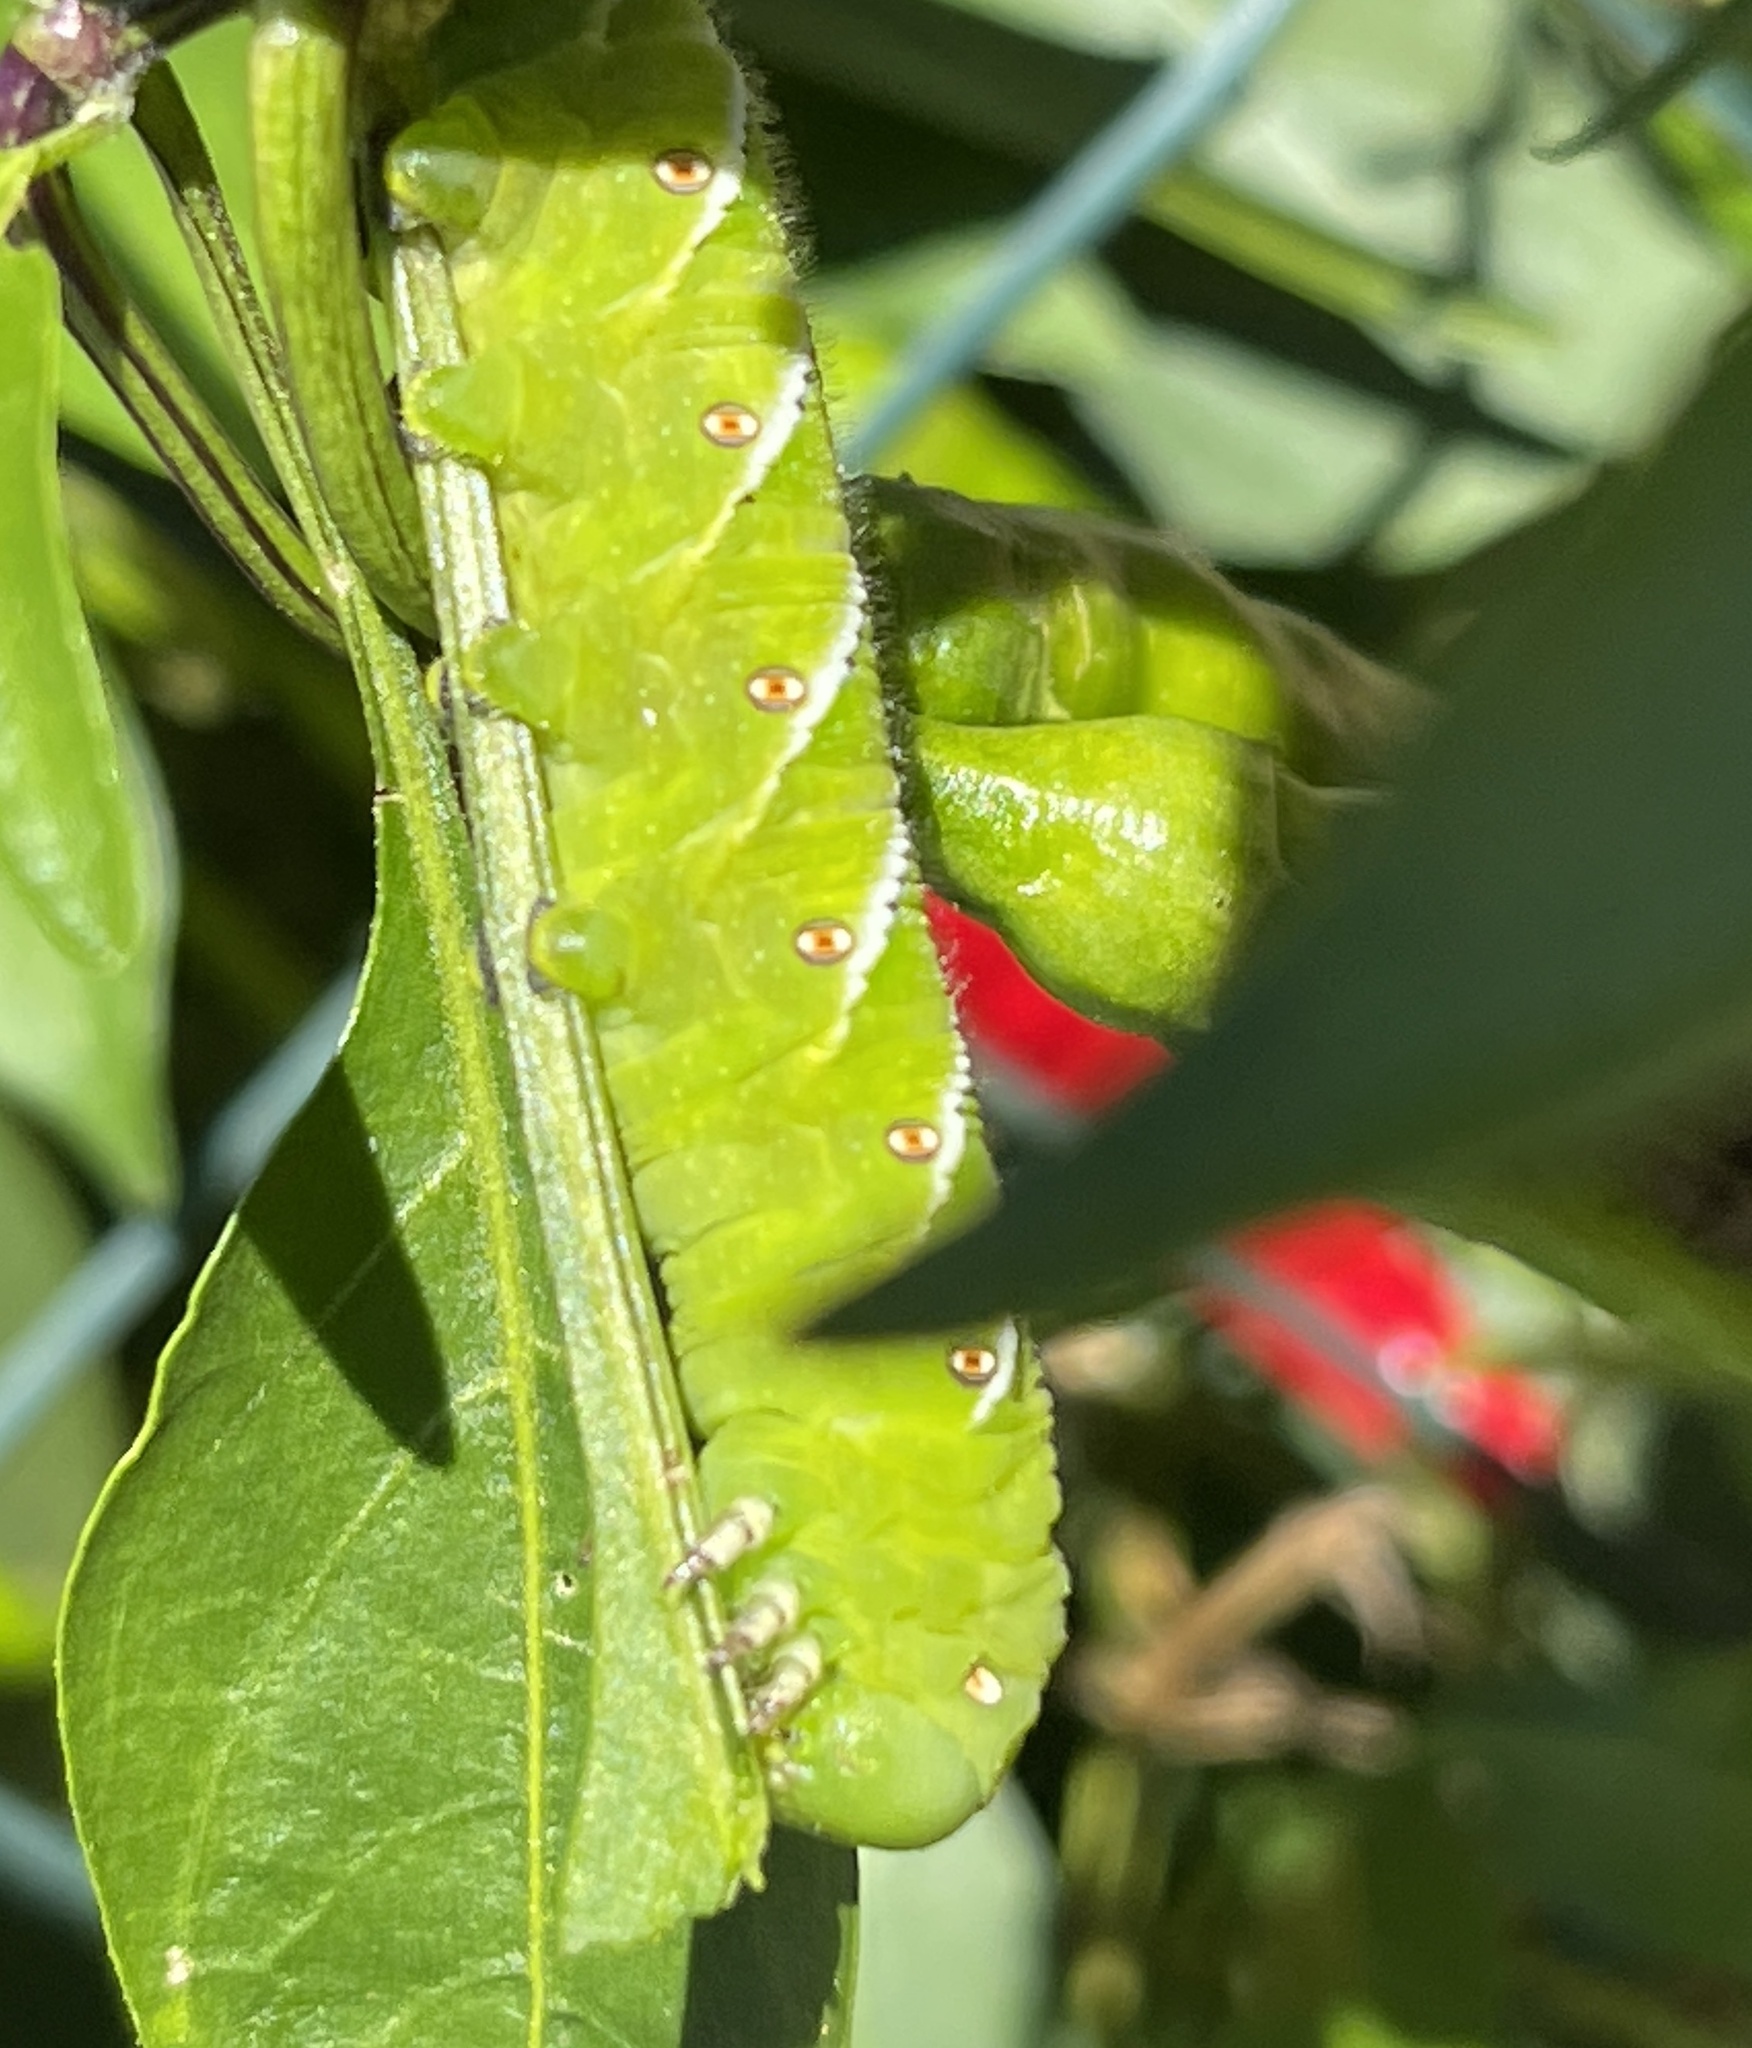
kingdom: Animalia
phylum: Arthropoda
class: Insecta
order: Lepidoptera
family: Sphingidae
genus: Manduca
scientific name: Manduca sexta
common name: Carolina sphinx
